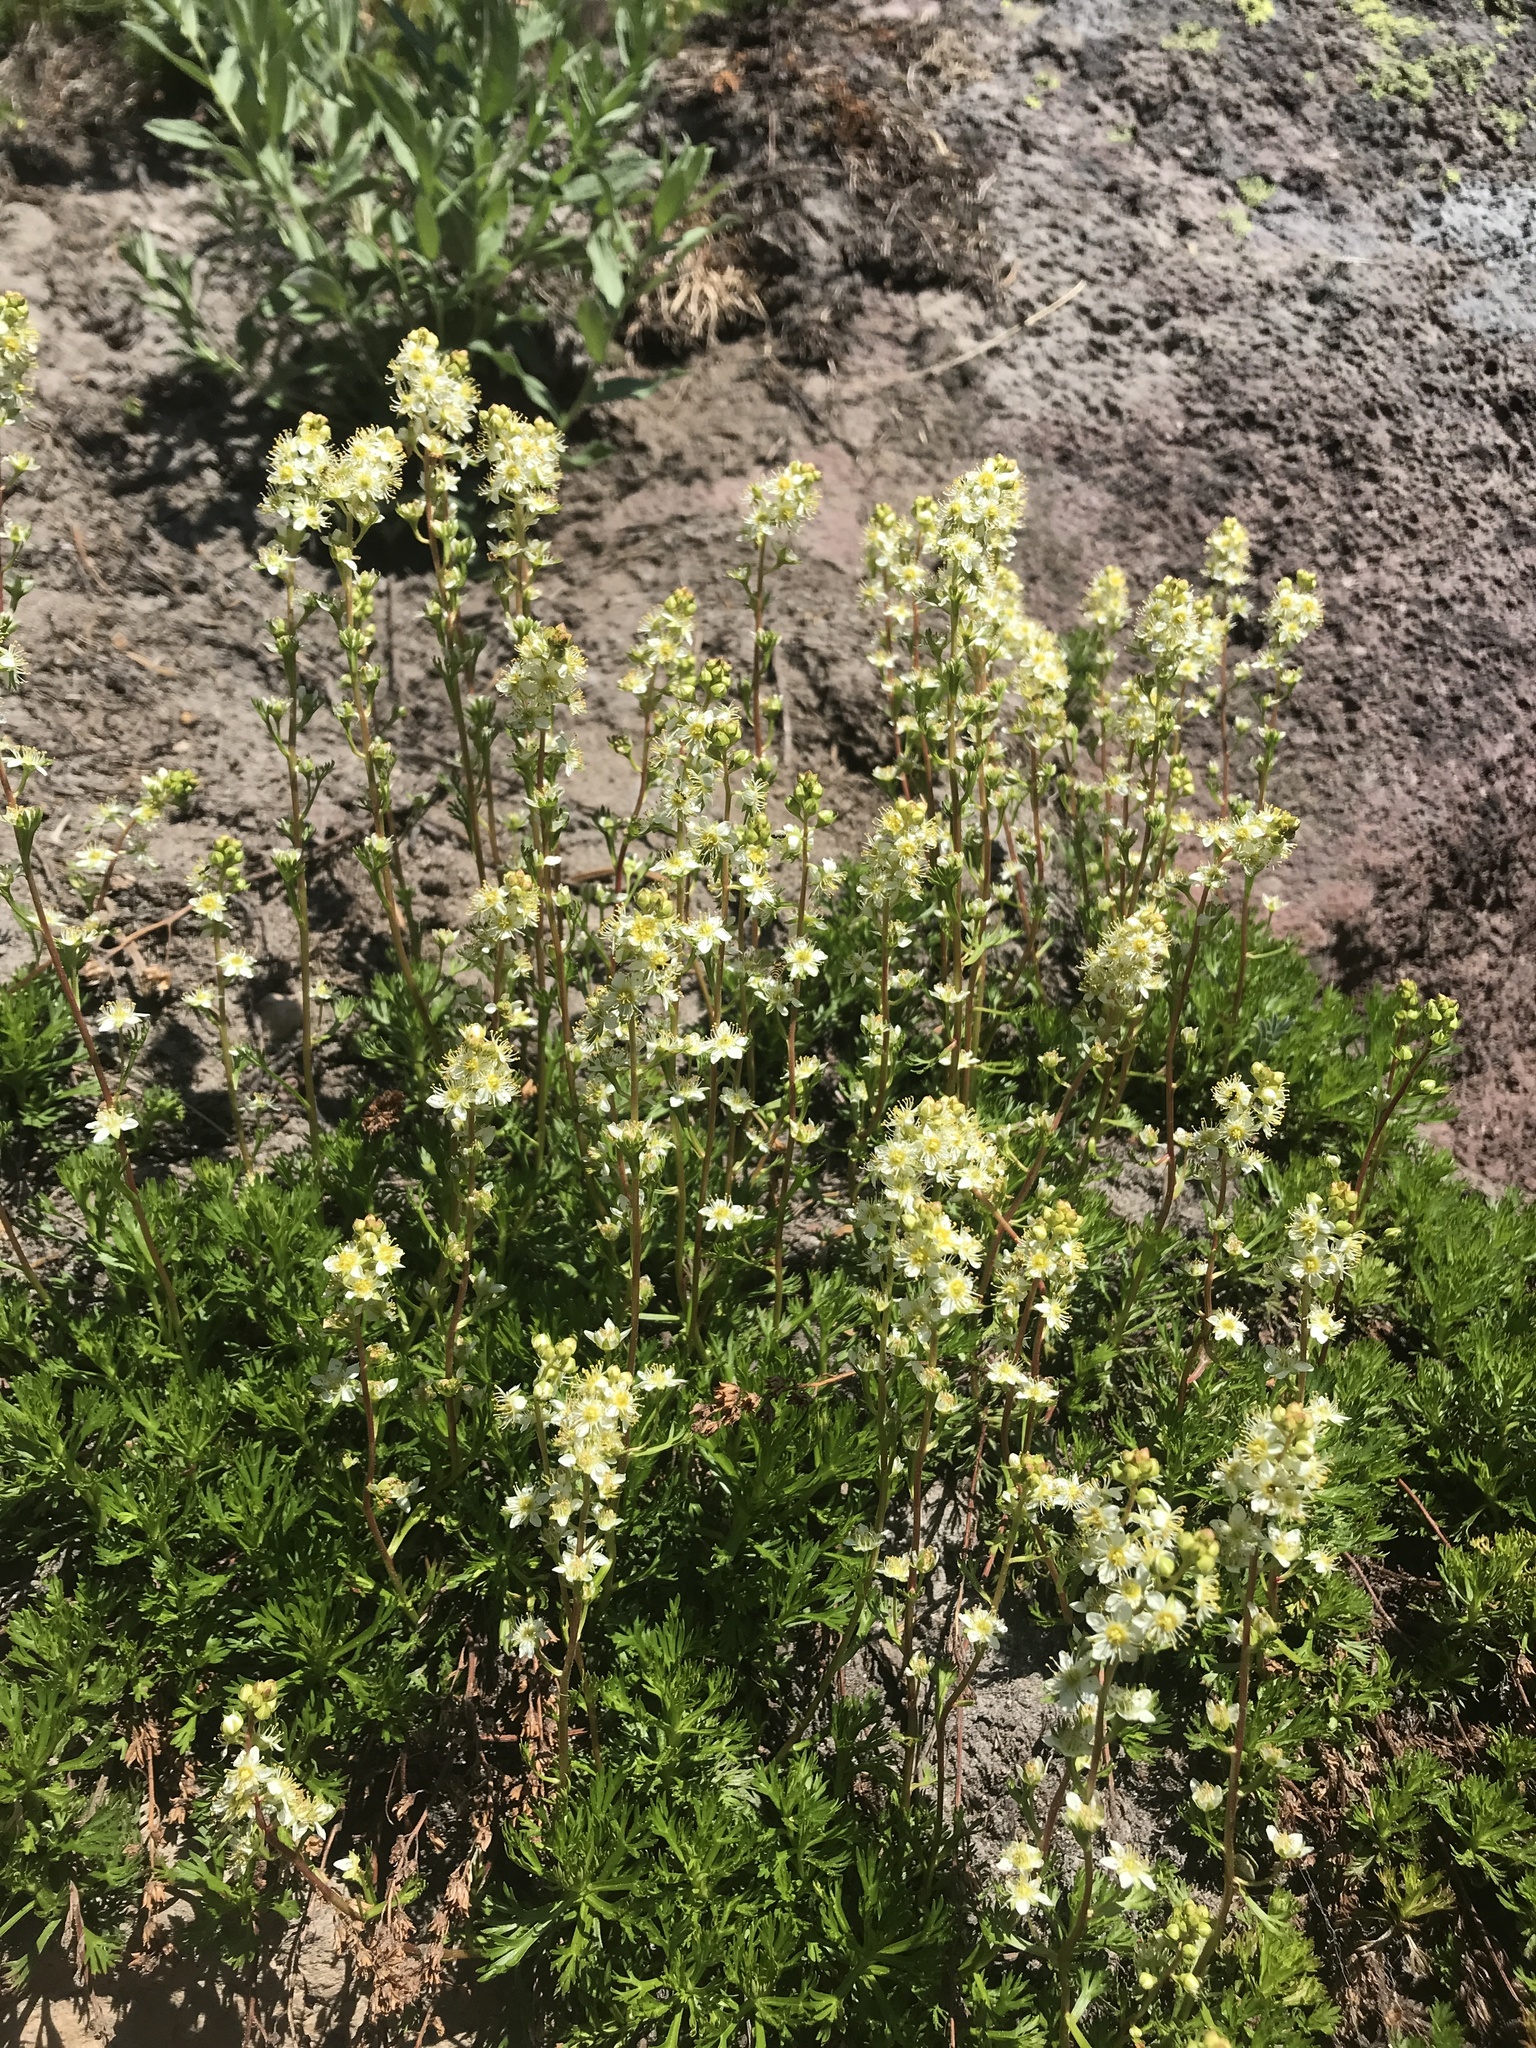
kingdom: Plantae
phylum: Tracheophyta
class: Magnoliopsida
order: Rosales
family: Rosaceae
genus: Luetkea
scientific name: Luetkea pectinata
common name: Partridgefoot
